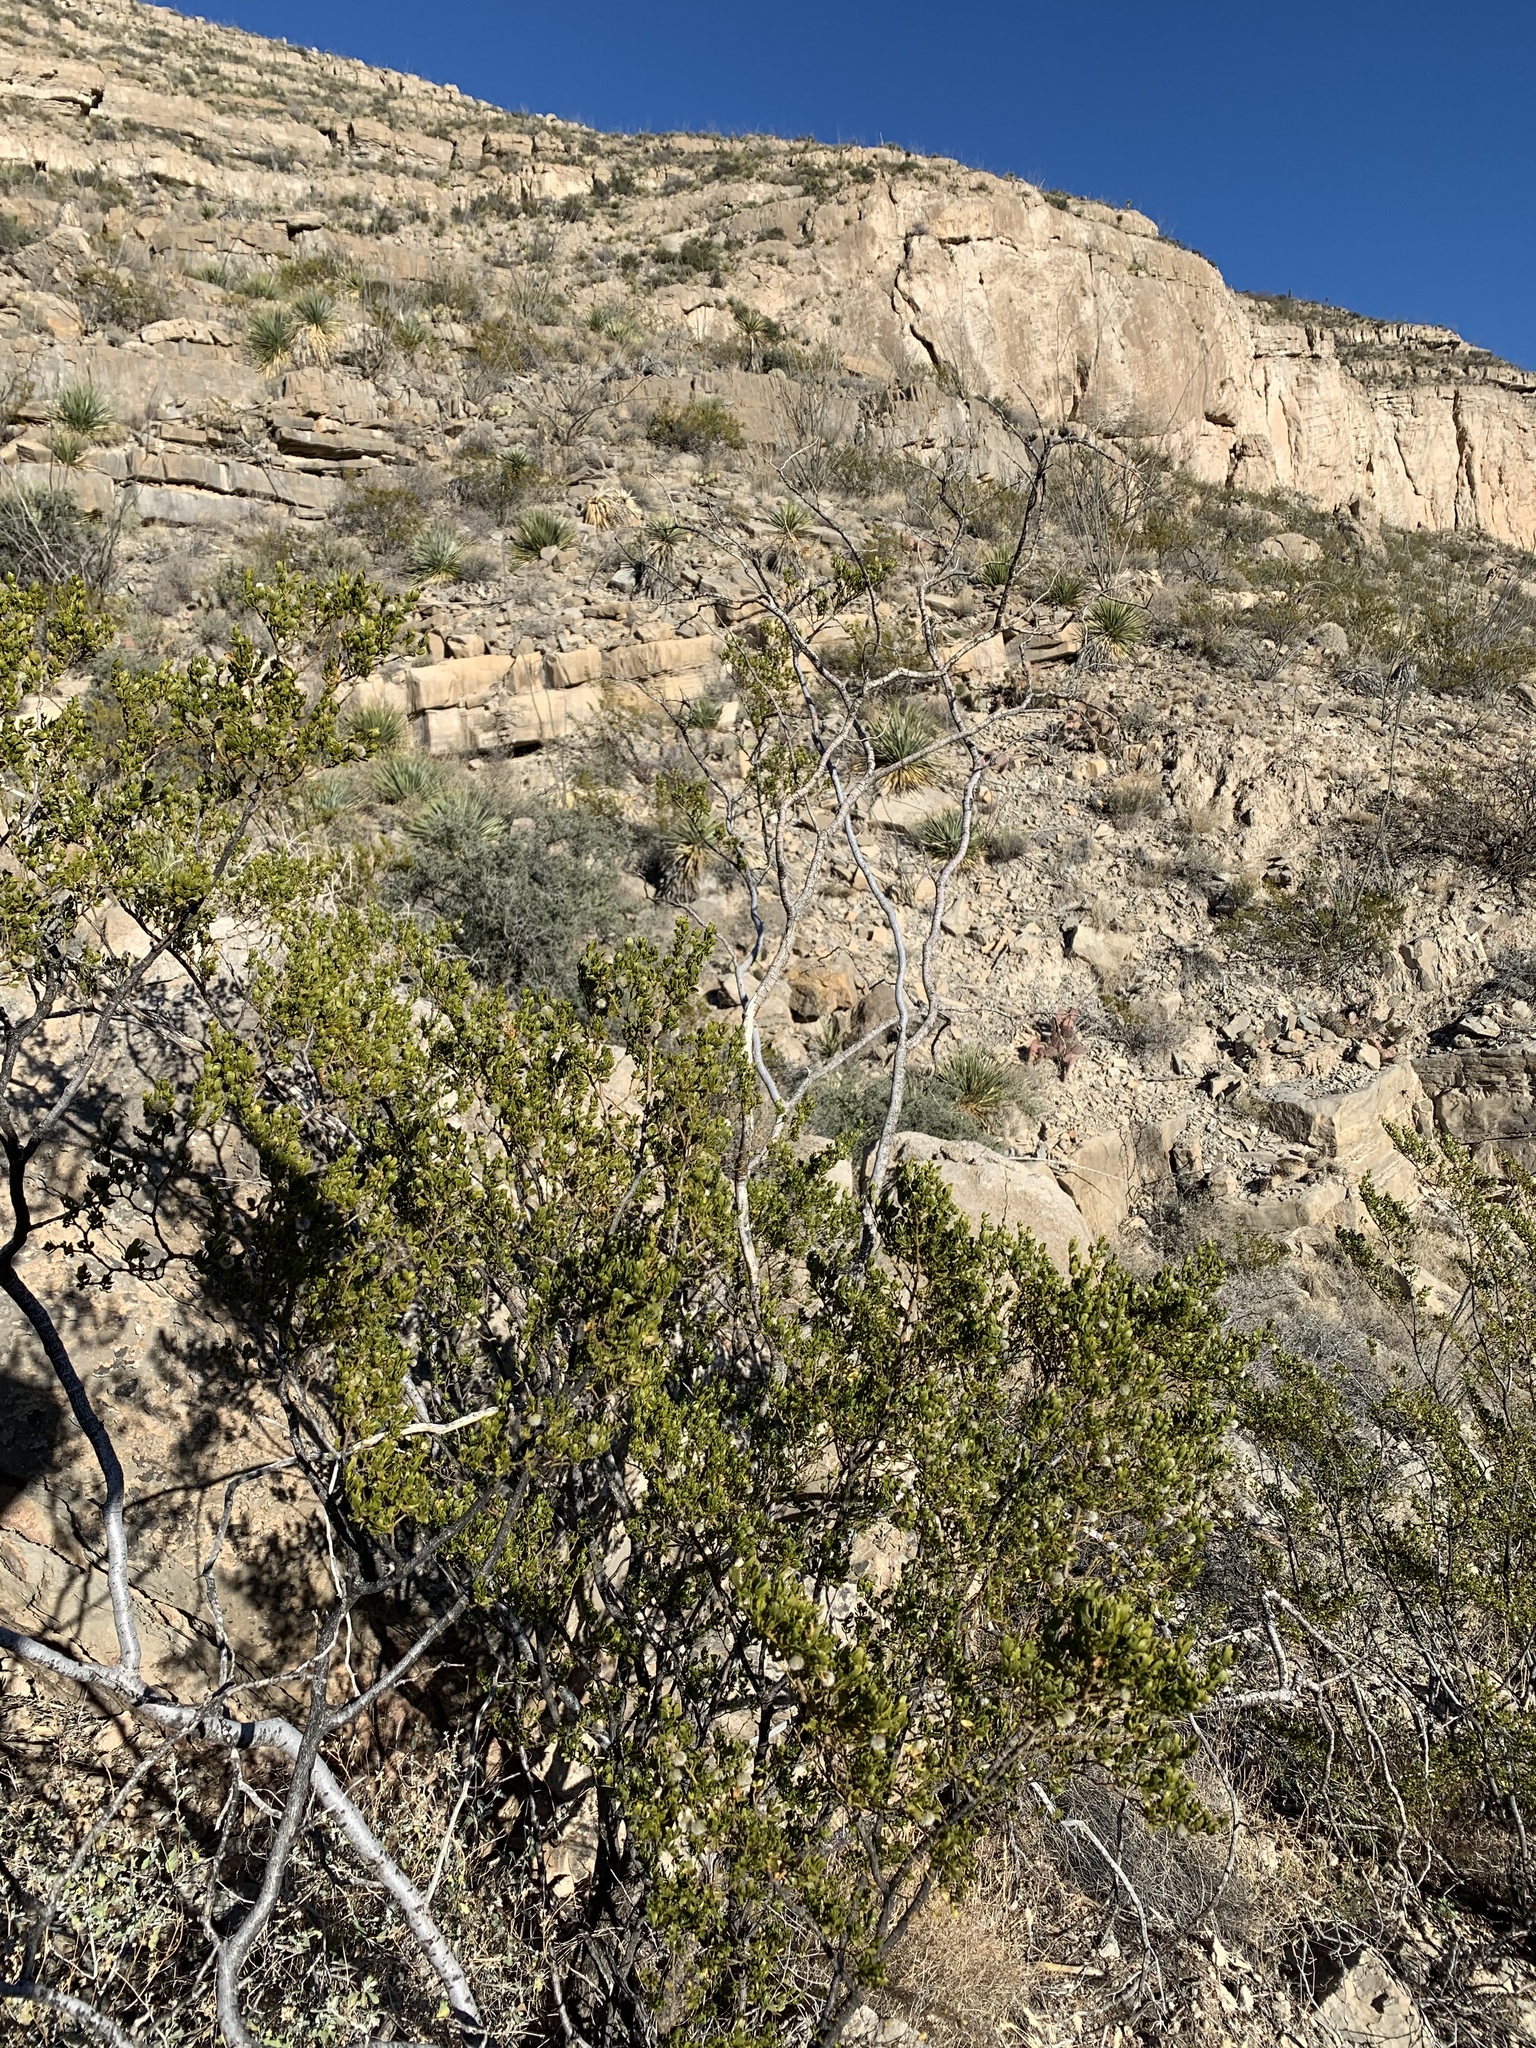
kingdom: Plantae
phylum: Tracheophyta
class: Magnoliopsida
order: Zygophyllales
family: Zygophyllaceae
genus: Larrea
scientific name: Larrea tridentata
